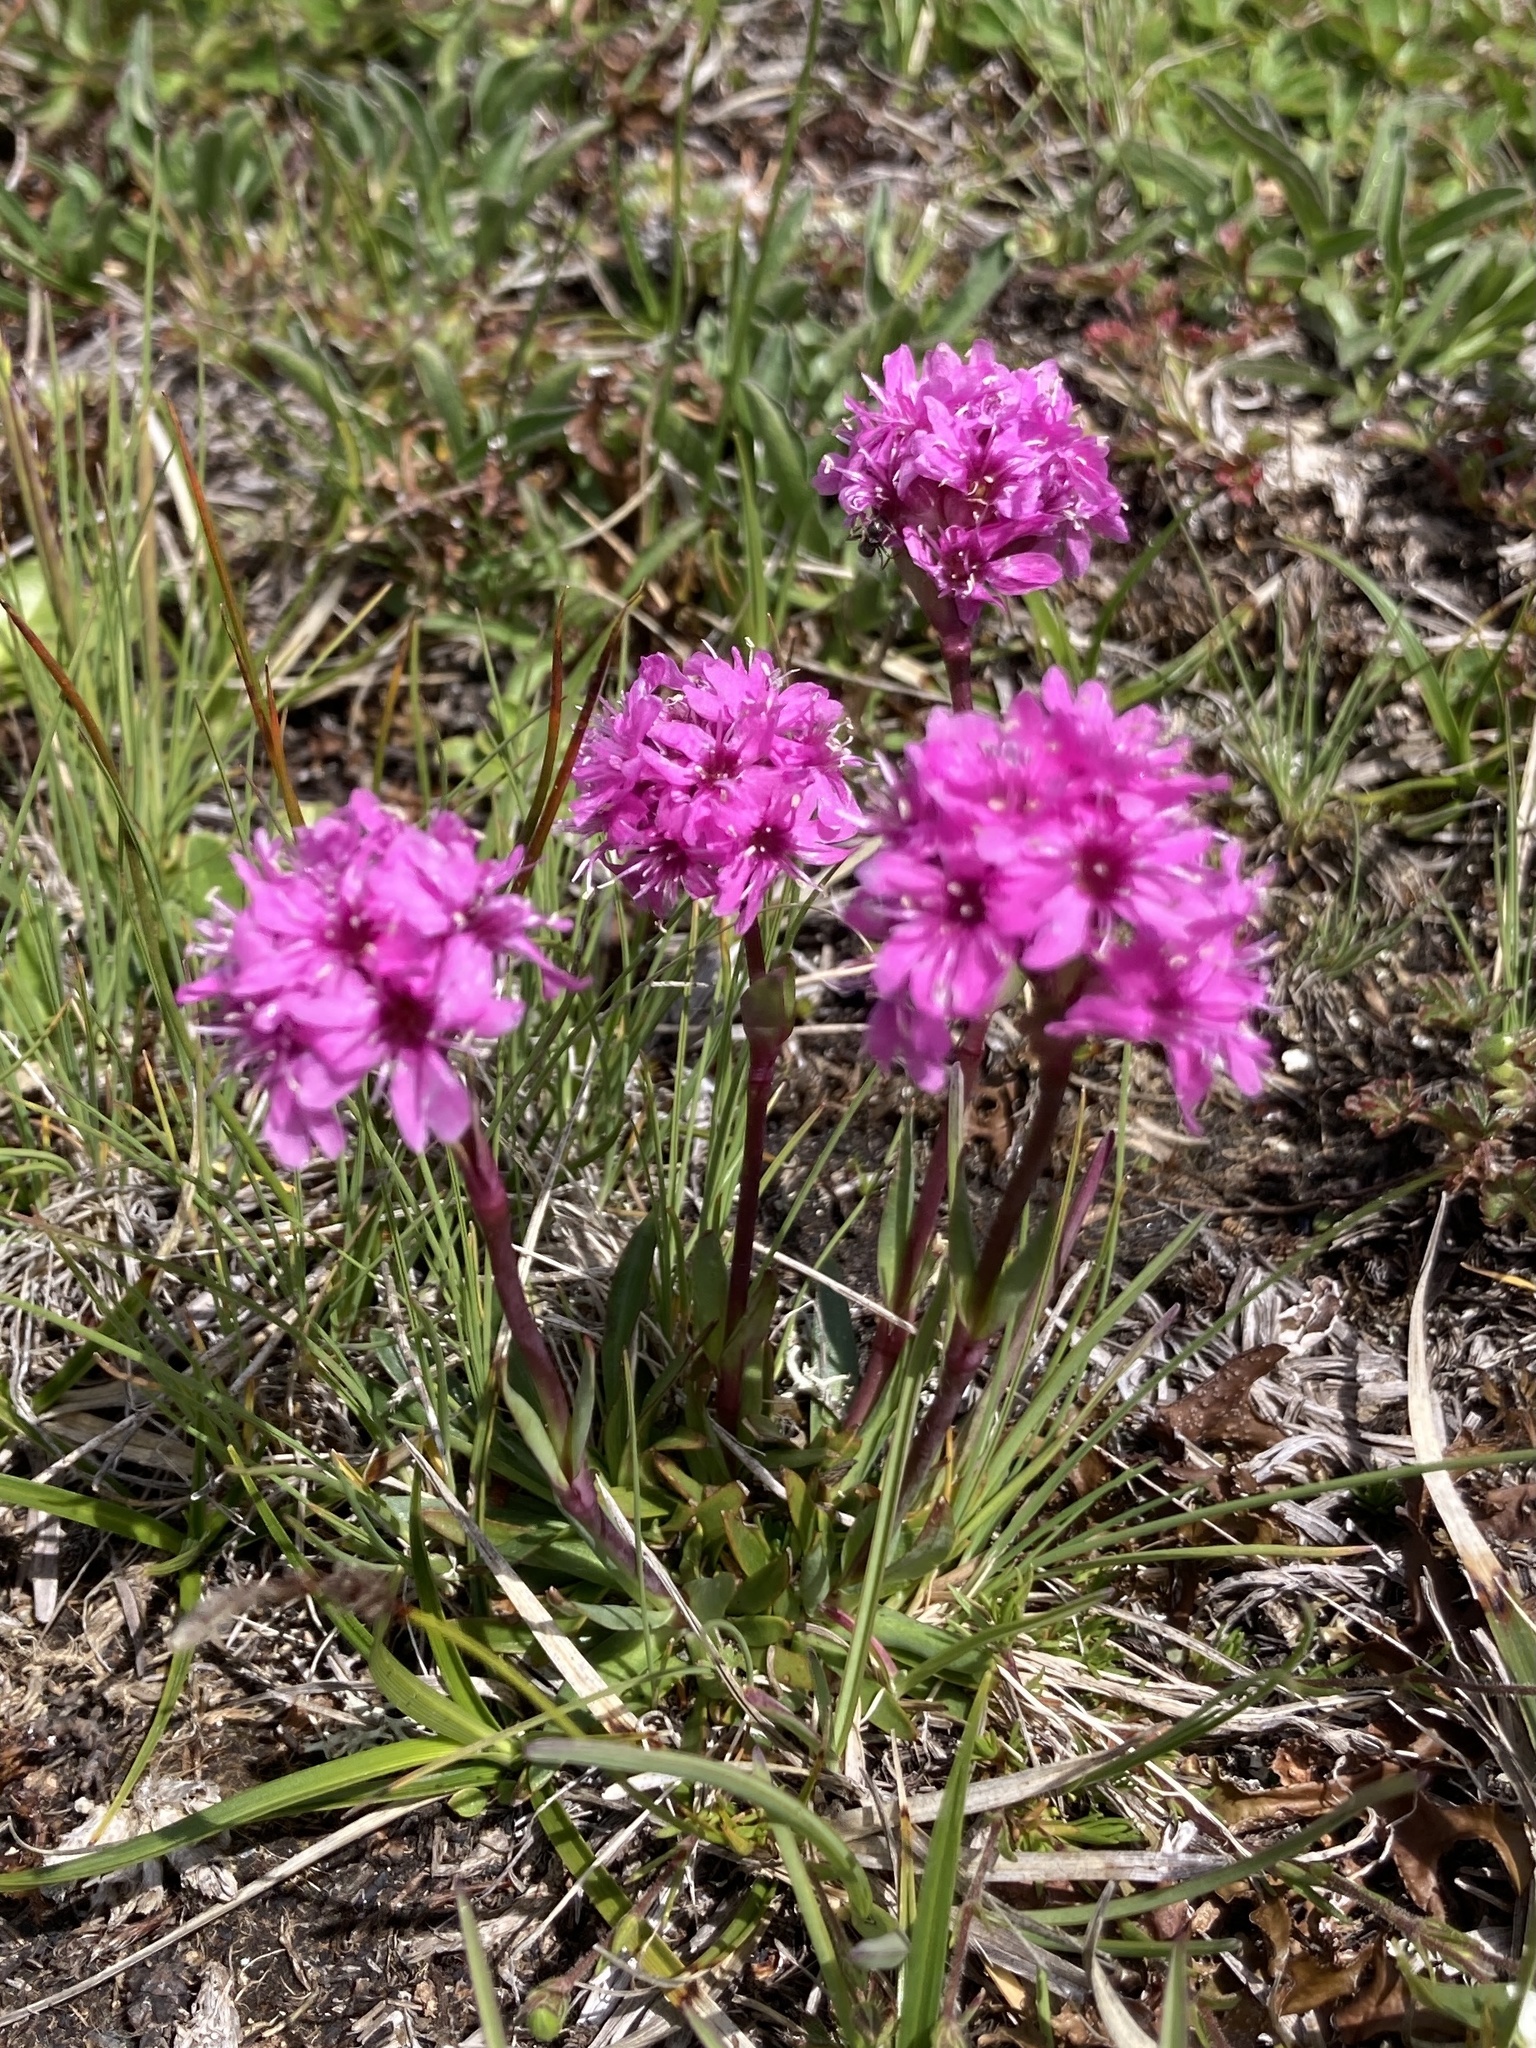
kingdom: Plantae
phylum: Tracheophyta
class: Magnoliopsida
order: Caryophyllales
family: Caryophyllaceae
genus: Viscaria
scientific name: Viscaria alpina
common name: Alpine campion
